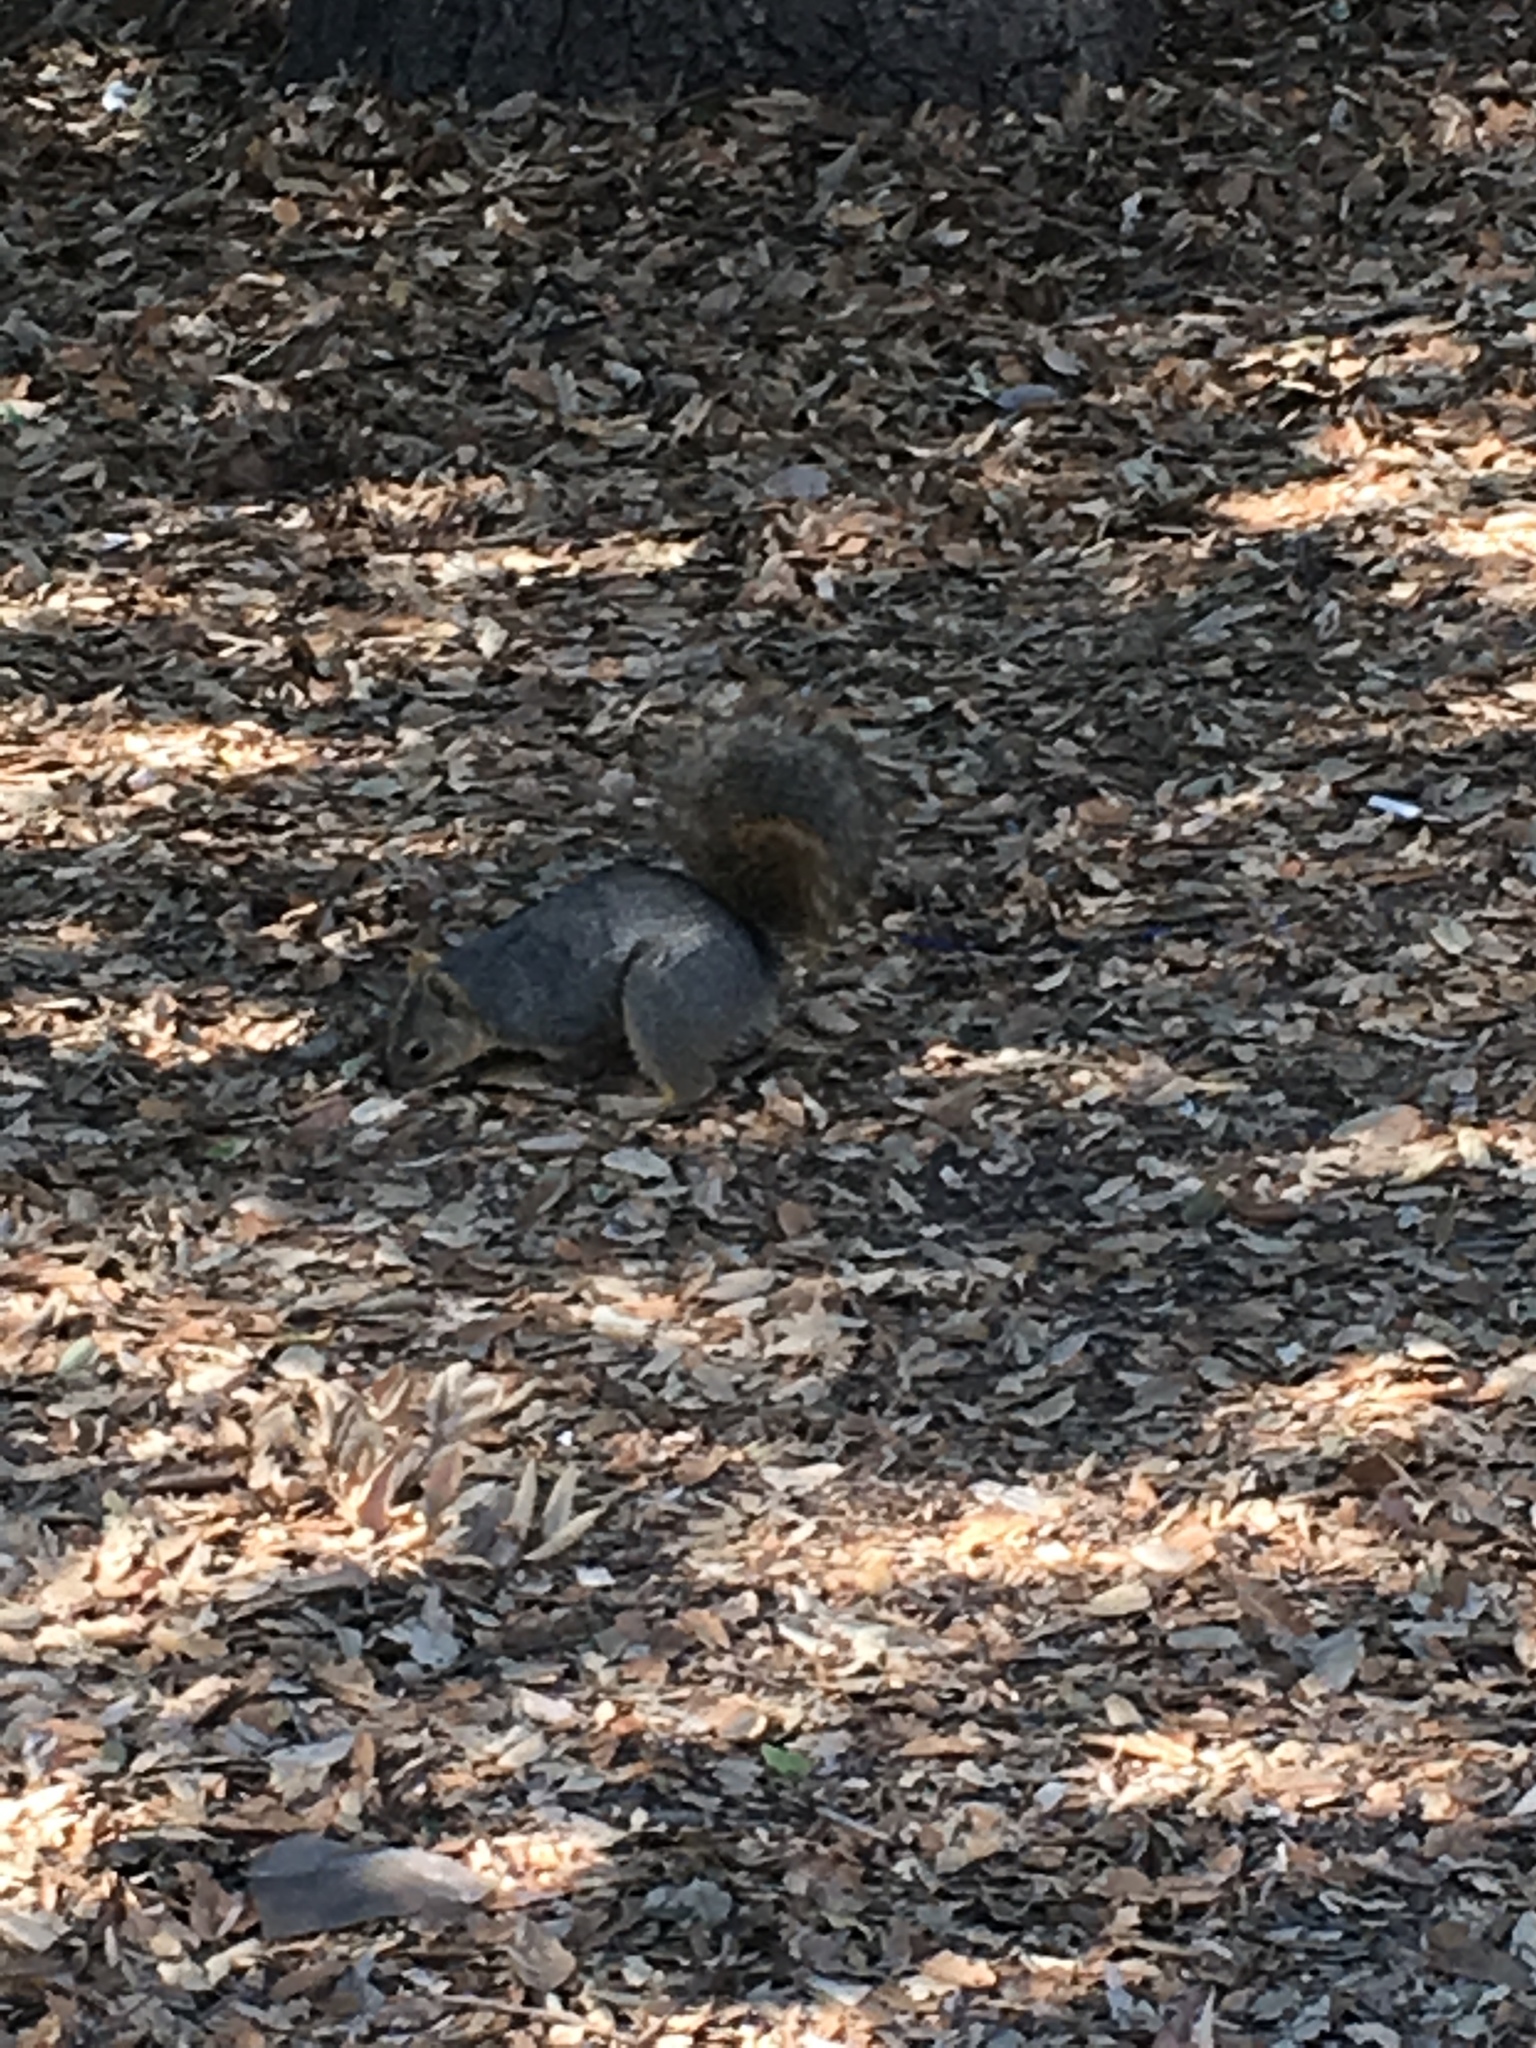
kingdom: Animalia
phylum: Chordata
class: Mammalia
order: Rodentia
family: Sciuridae
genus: Sciurus
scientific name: Sciurus niger
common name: Fox squirrel
